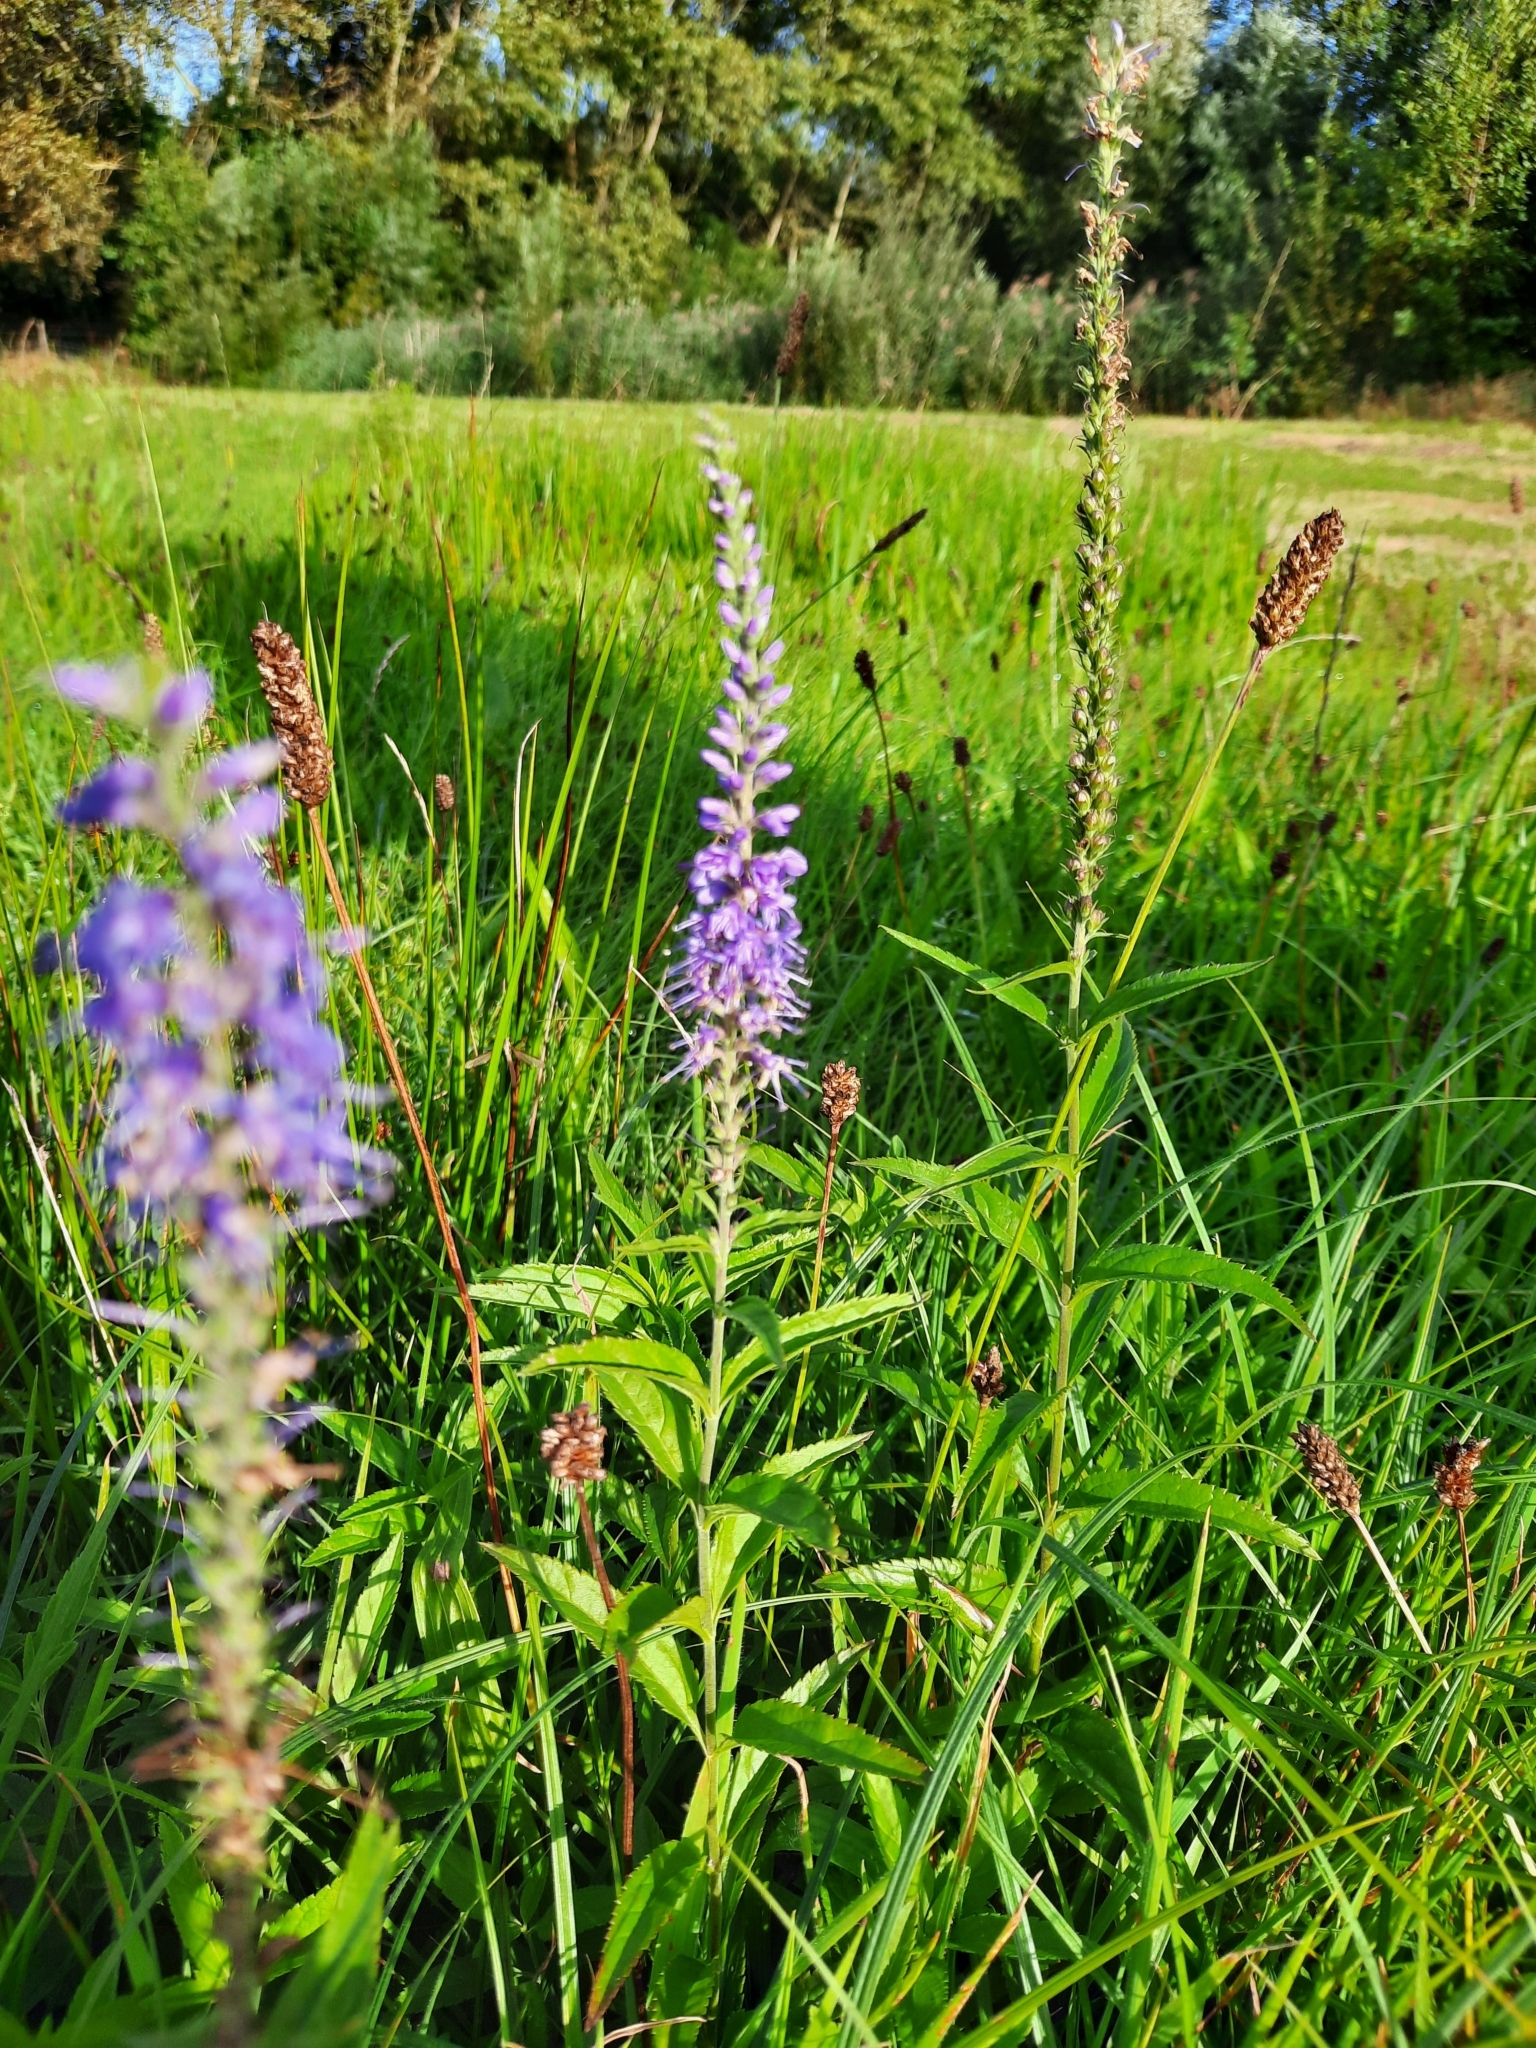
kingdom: Plantae
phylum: Tracheophyta
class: Magnoliopsida
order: Lamiales
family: Plantaginaceae
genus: Veronica
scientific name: Veronica longifolia
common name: Garden speedwell
